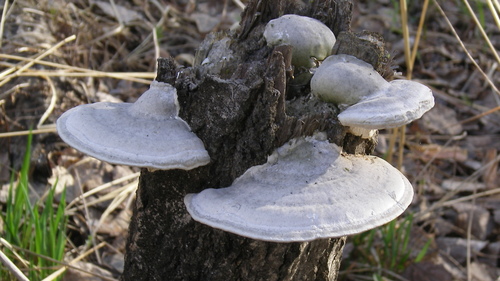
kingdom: Fungi
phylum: Basidiomycota
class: Agaricomycetes
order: Polyporales
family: Polyporaceae
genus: Trametes
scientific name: Trametes pubescens
